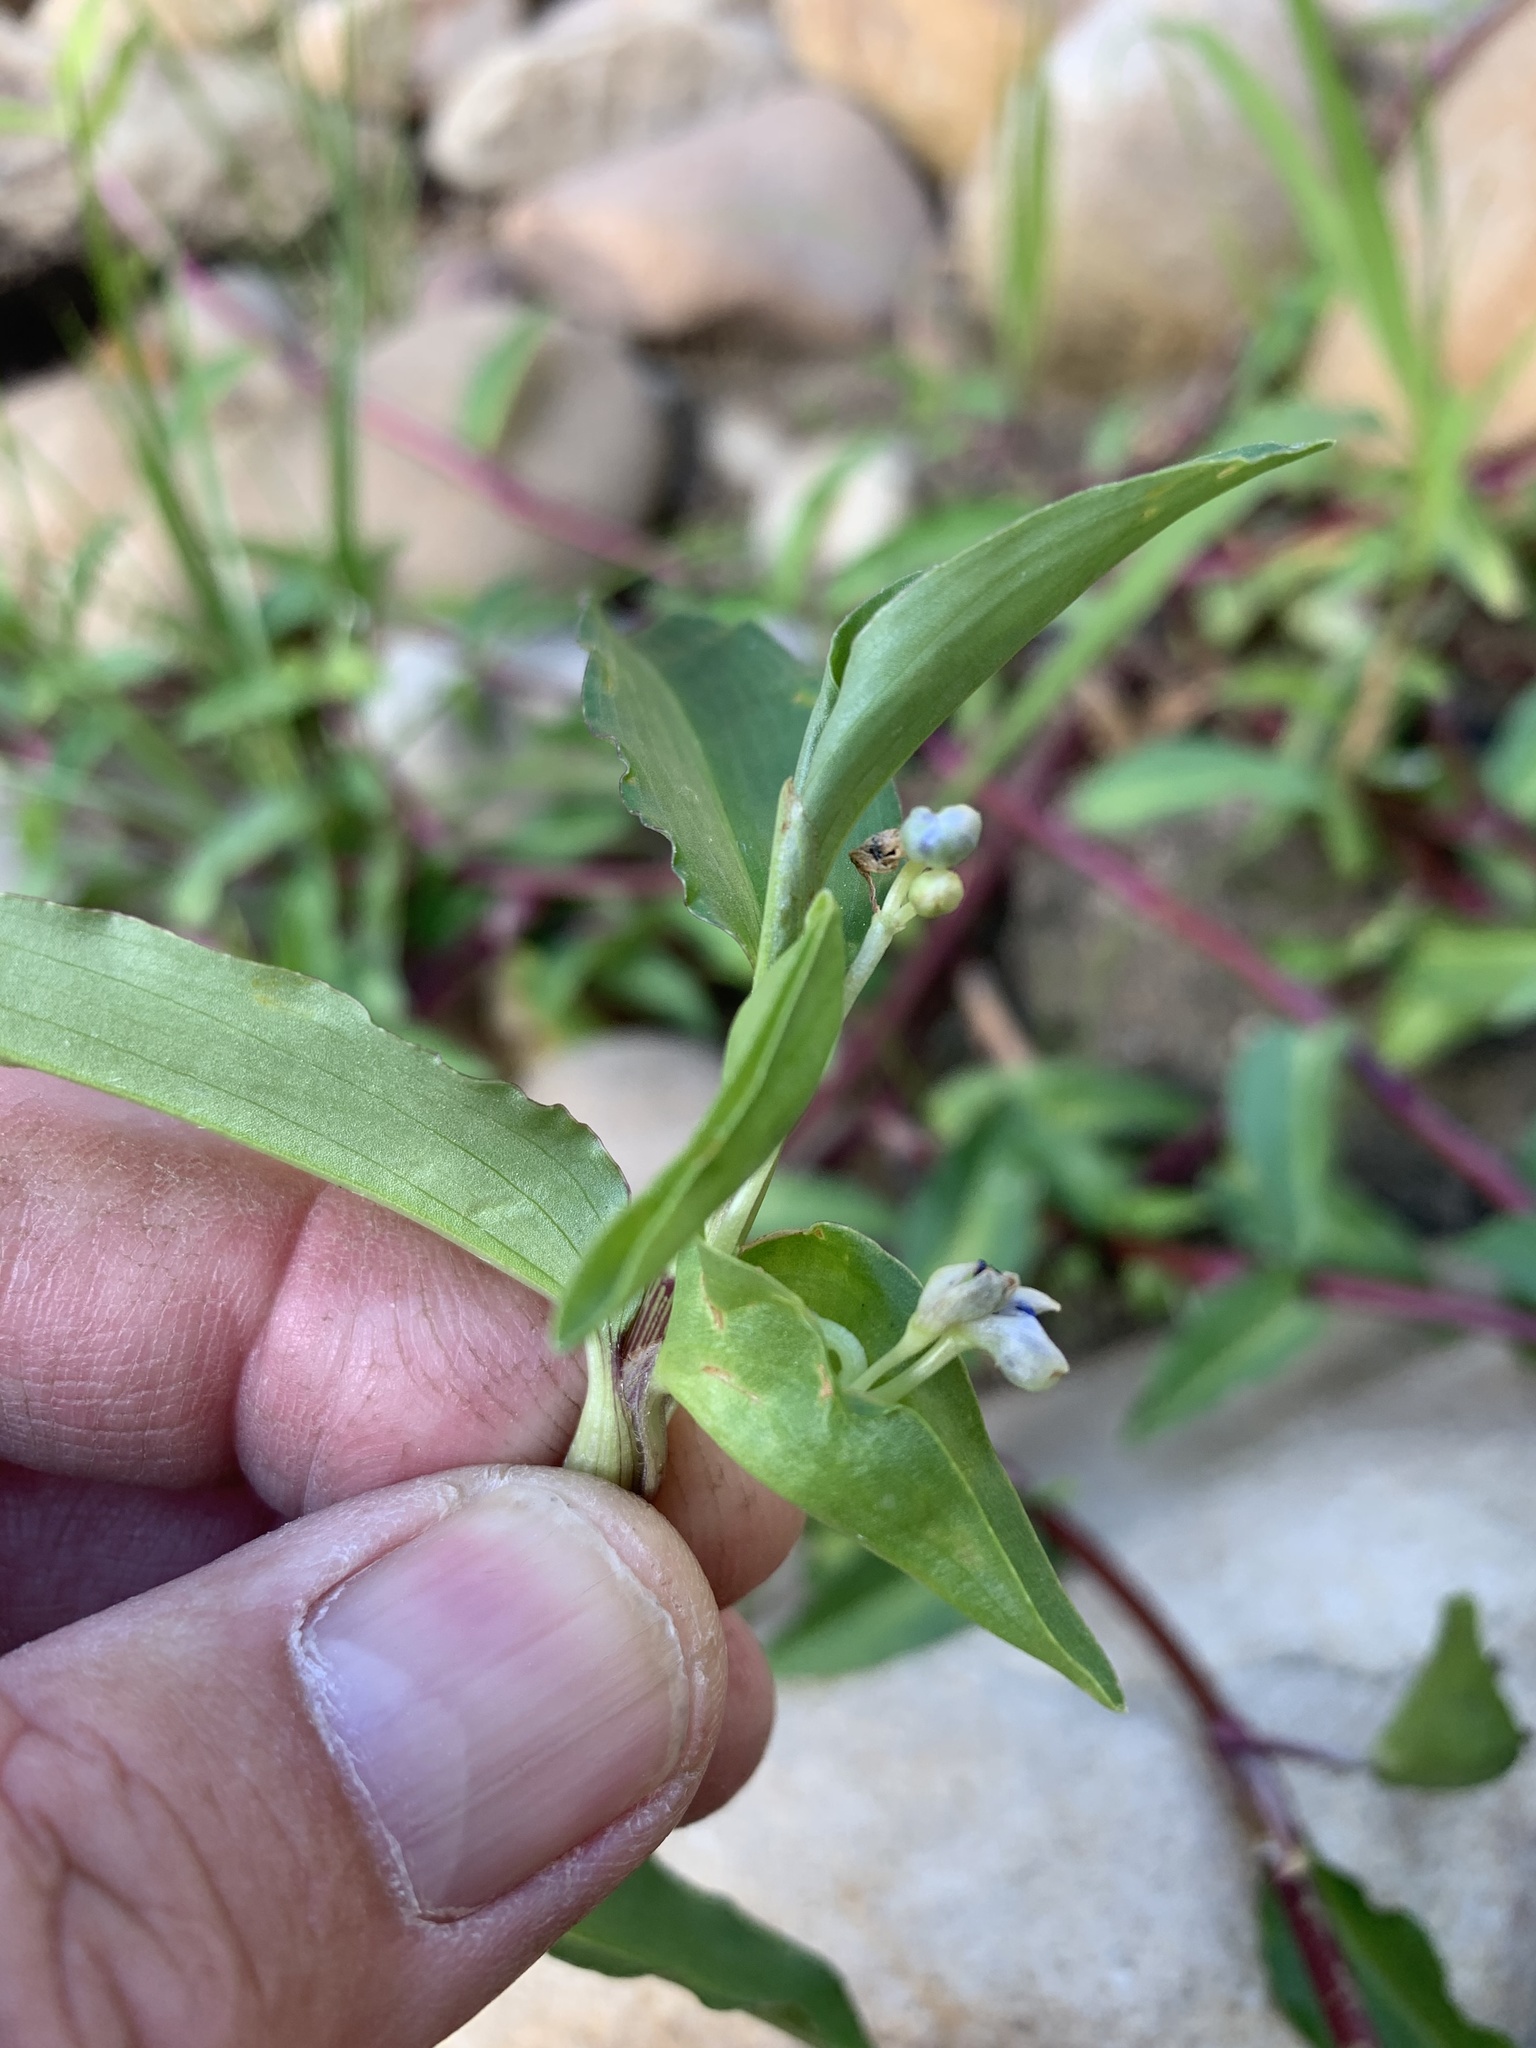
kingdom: Plantae
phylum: Tracheophyta
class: Liliopsida
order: Commelinales
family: Commelinaceae
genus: Commelina
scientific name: Commelina diffusa
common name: Climbing dayflower
